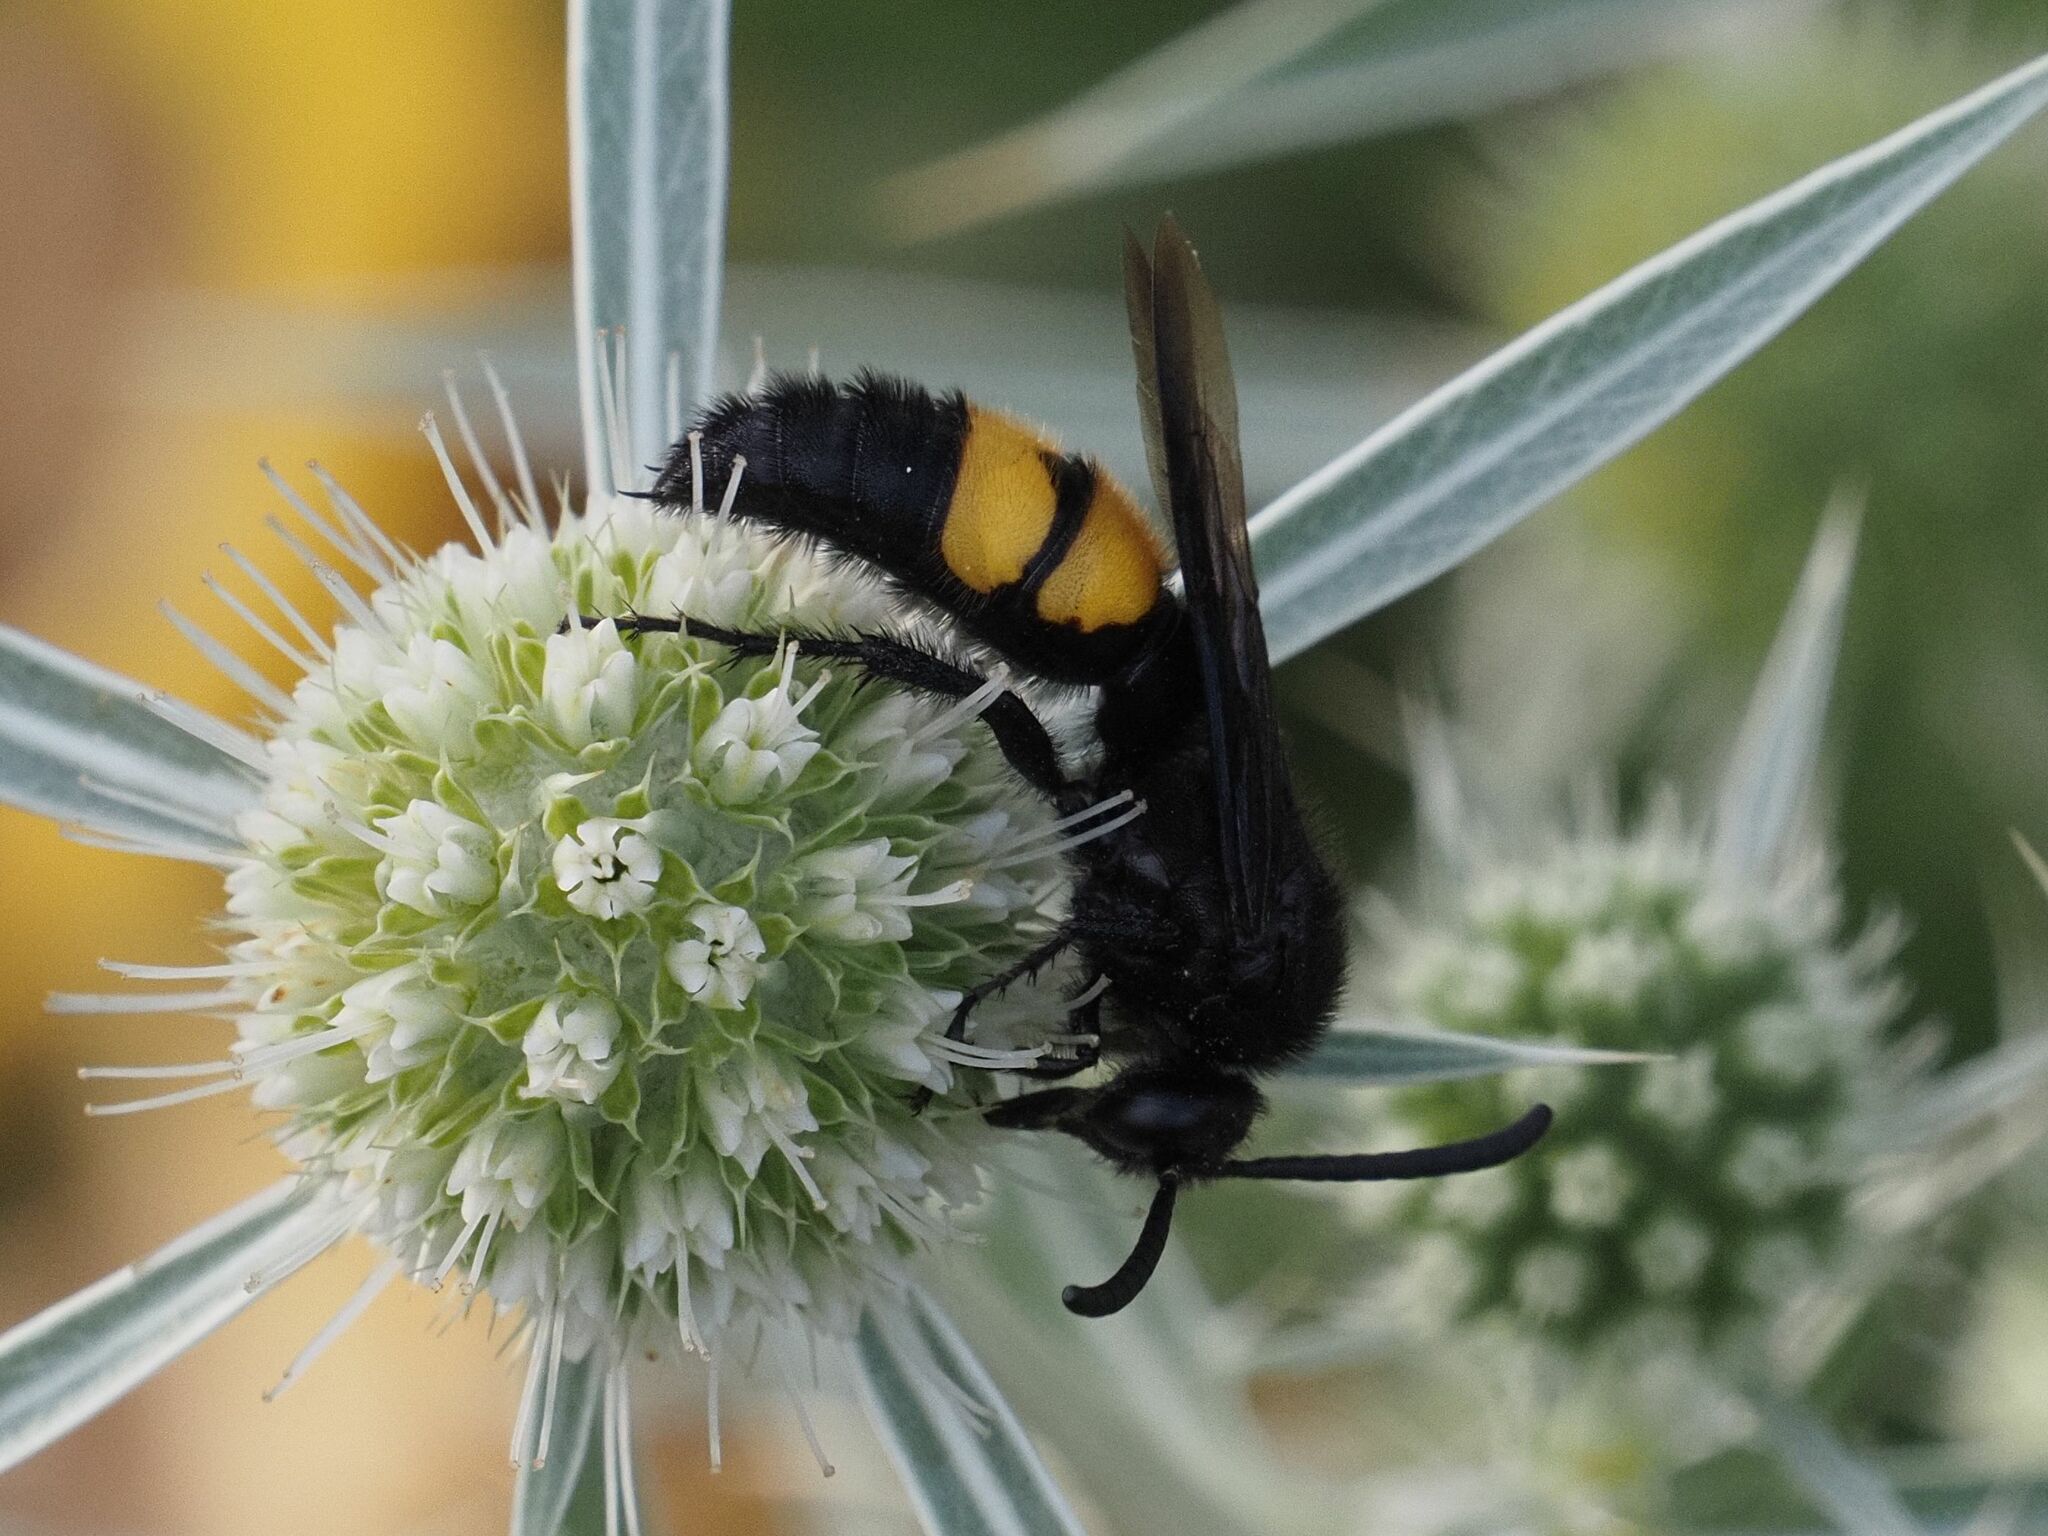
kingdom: Animalia
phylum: Arthropoda
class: Insecta
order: Hymenoptera
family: Scoliidae
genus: Scolia
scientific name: Scolia hirta
